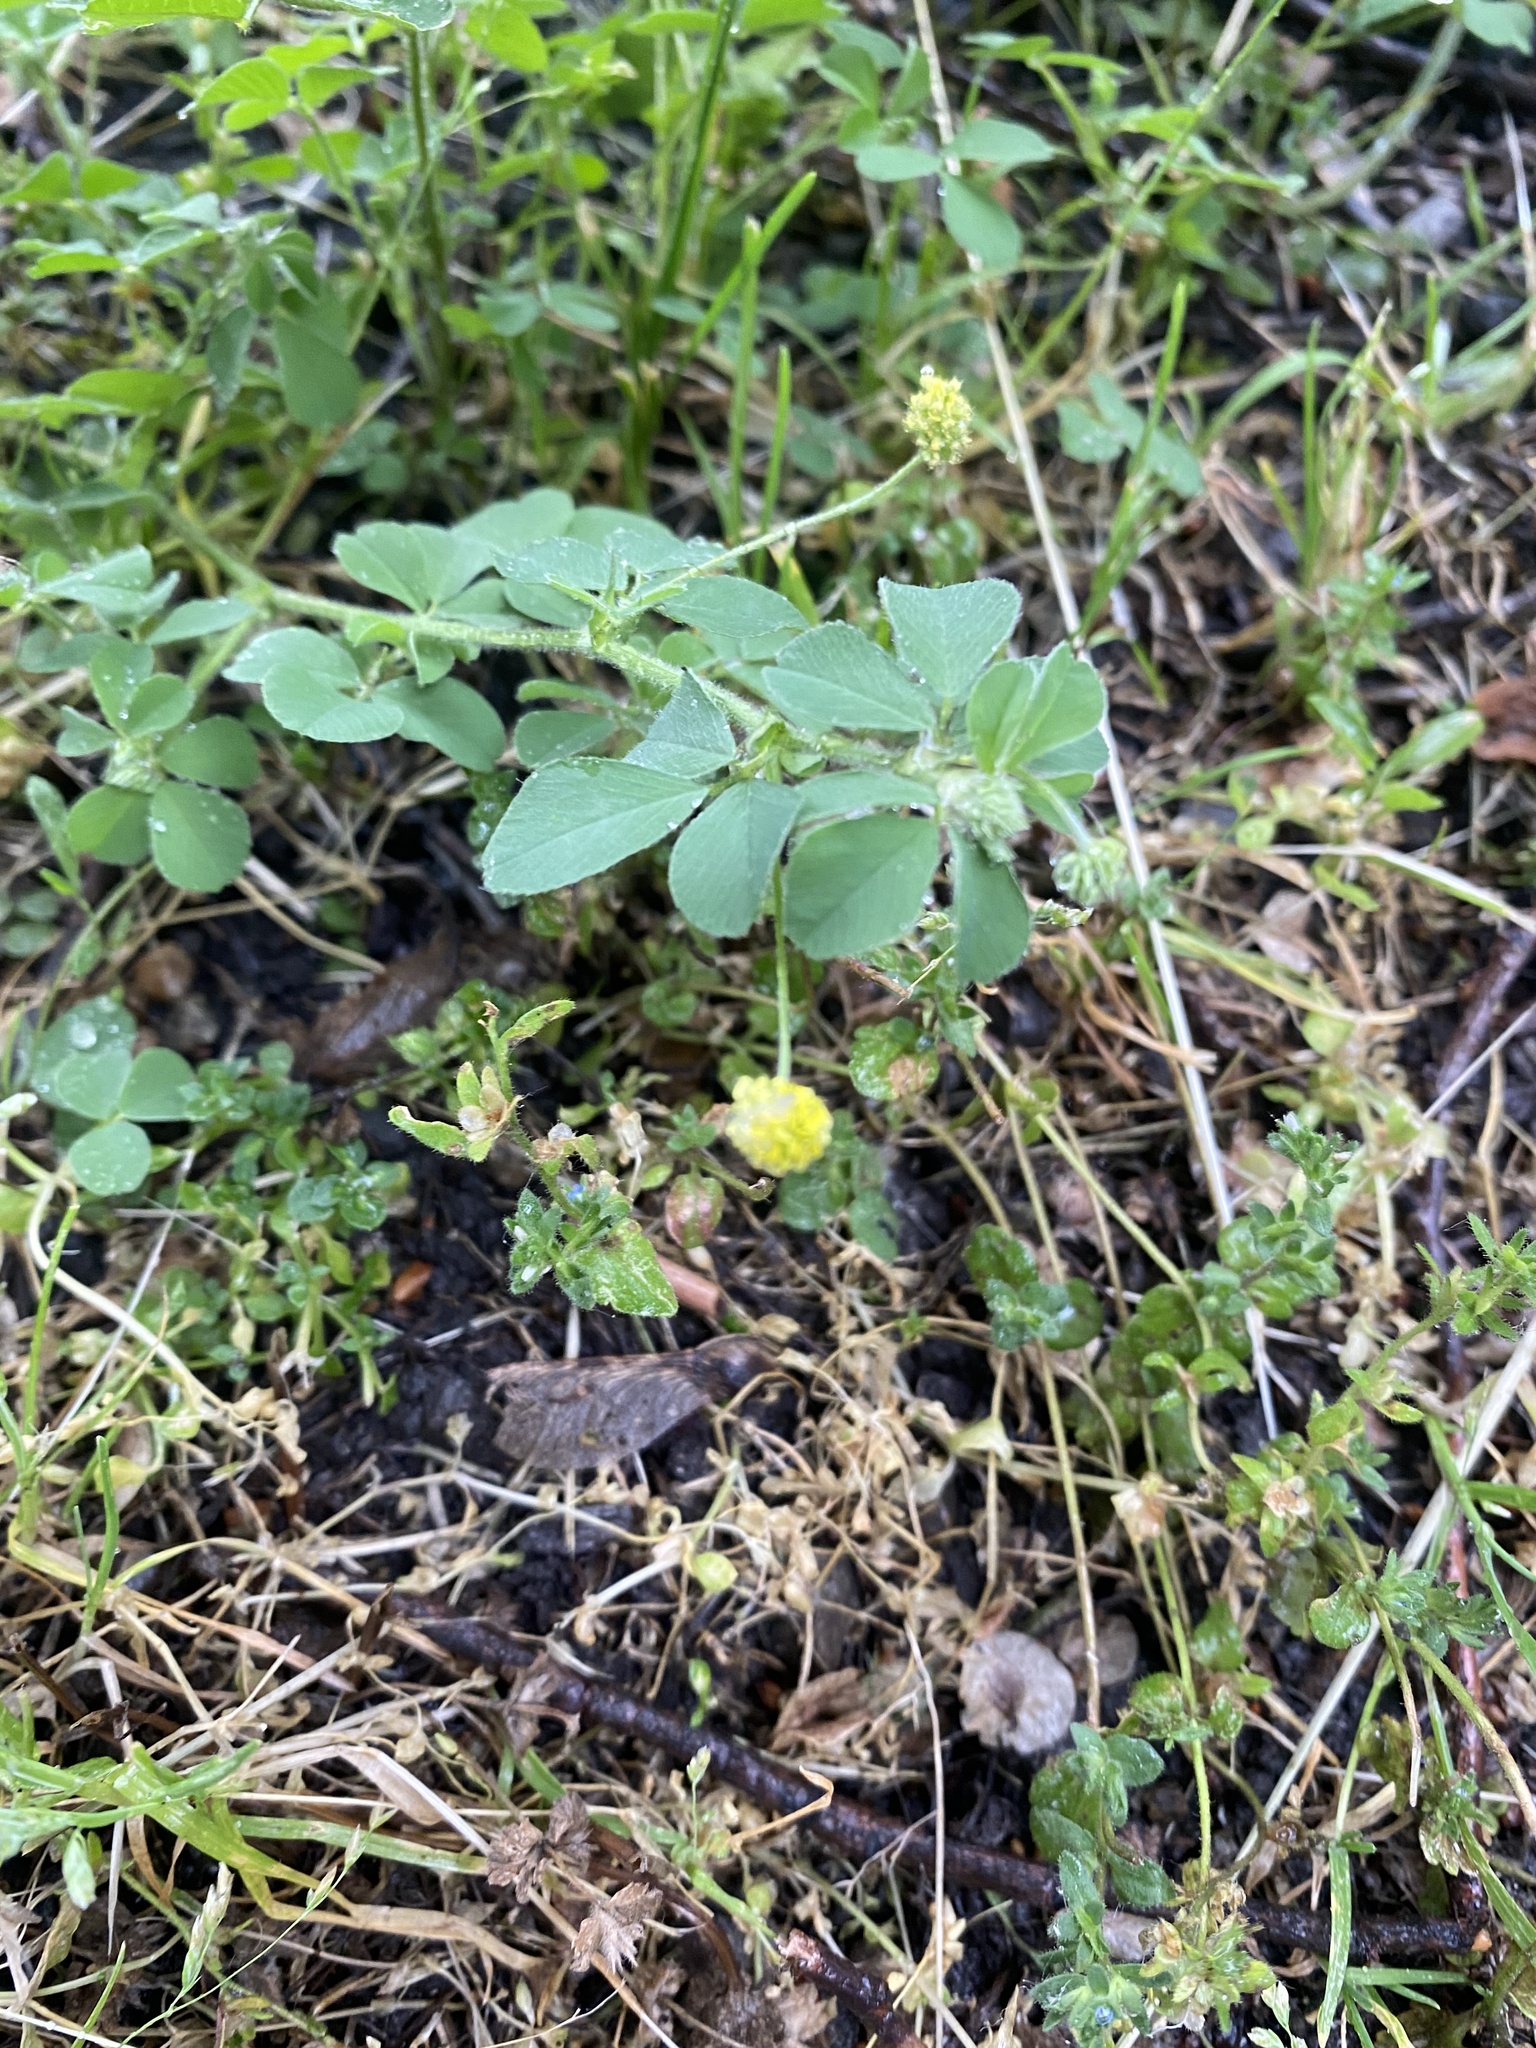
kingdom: Plantae
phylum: Tracheophyta
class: Magnoliopsida
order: Fabales
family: Fabaceae
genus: Medicago
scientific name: Medicago lupulina
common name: Black medick
